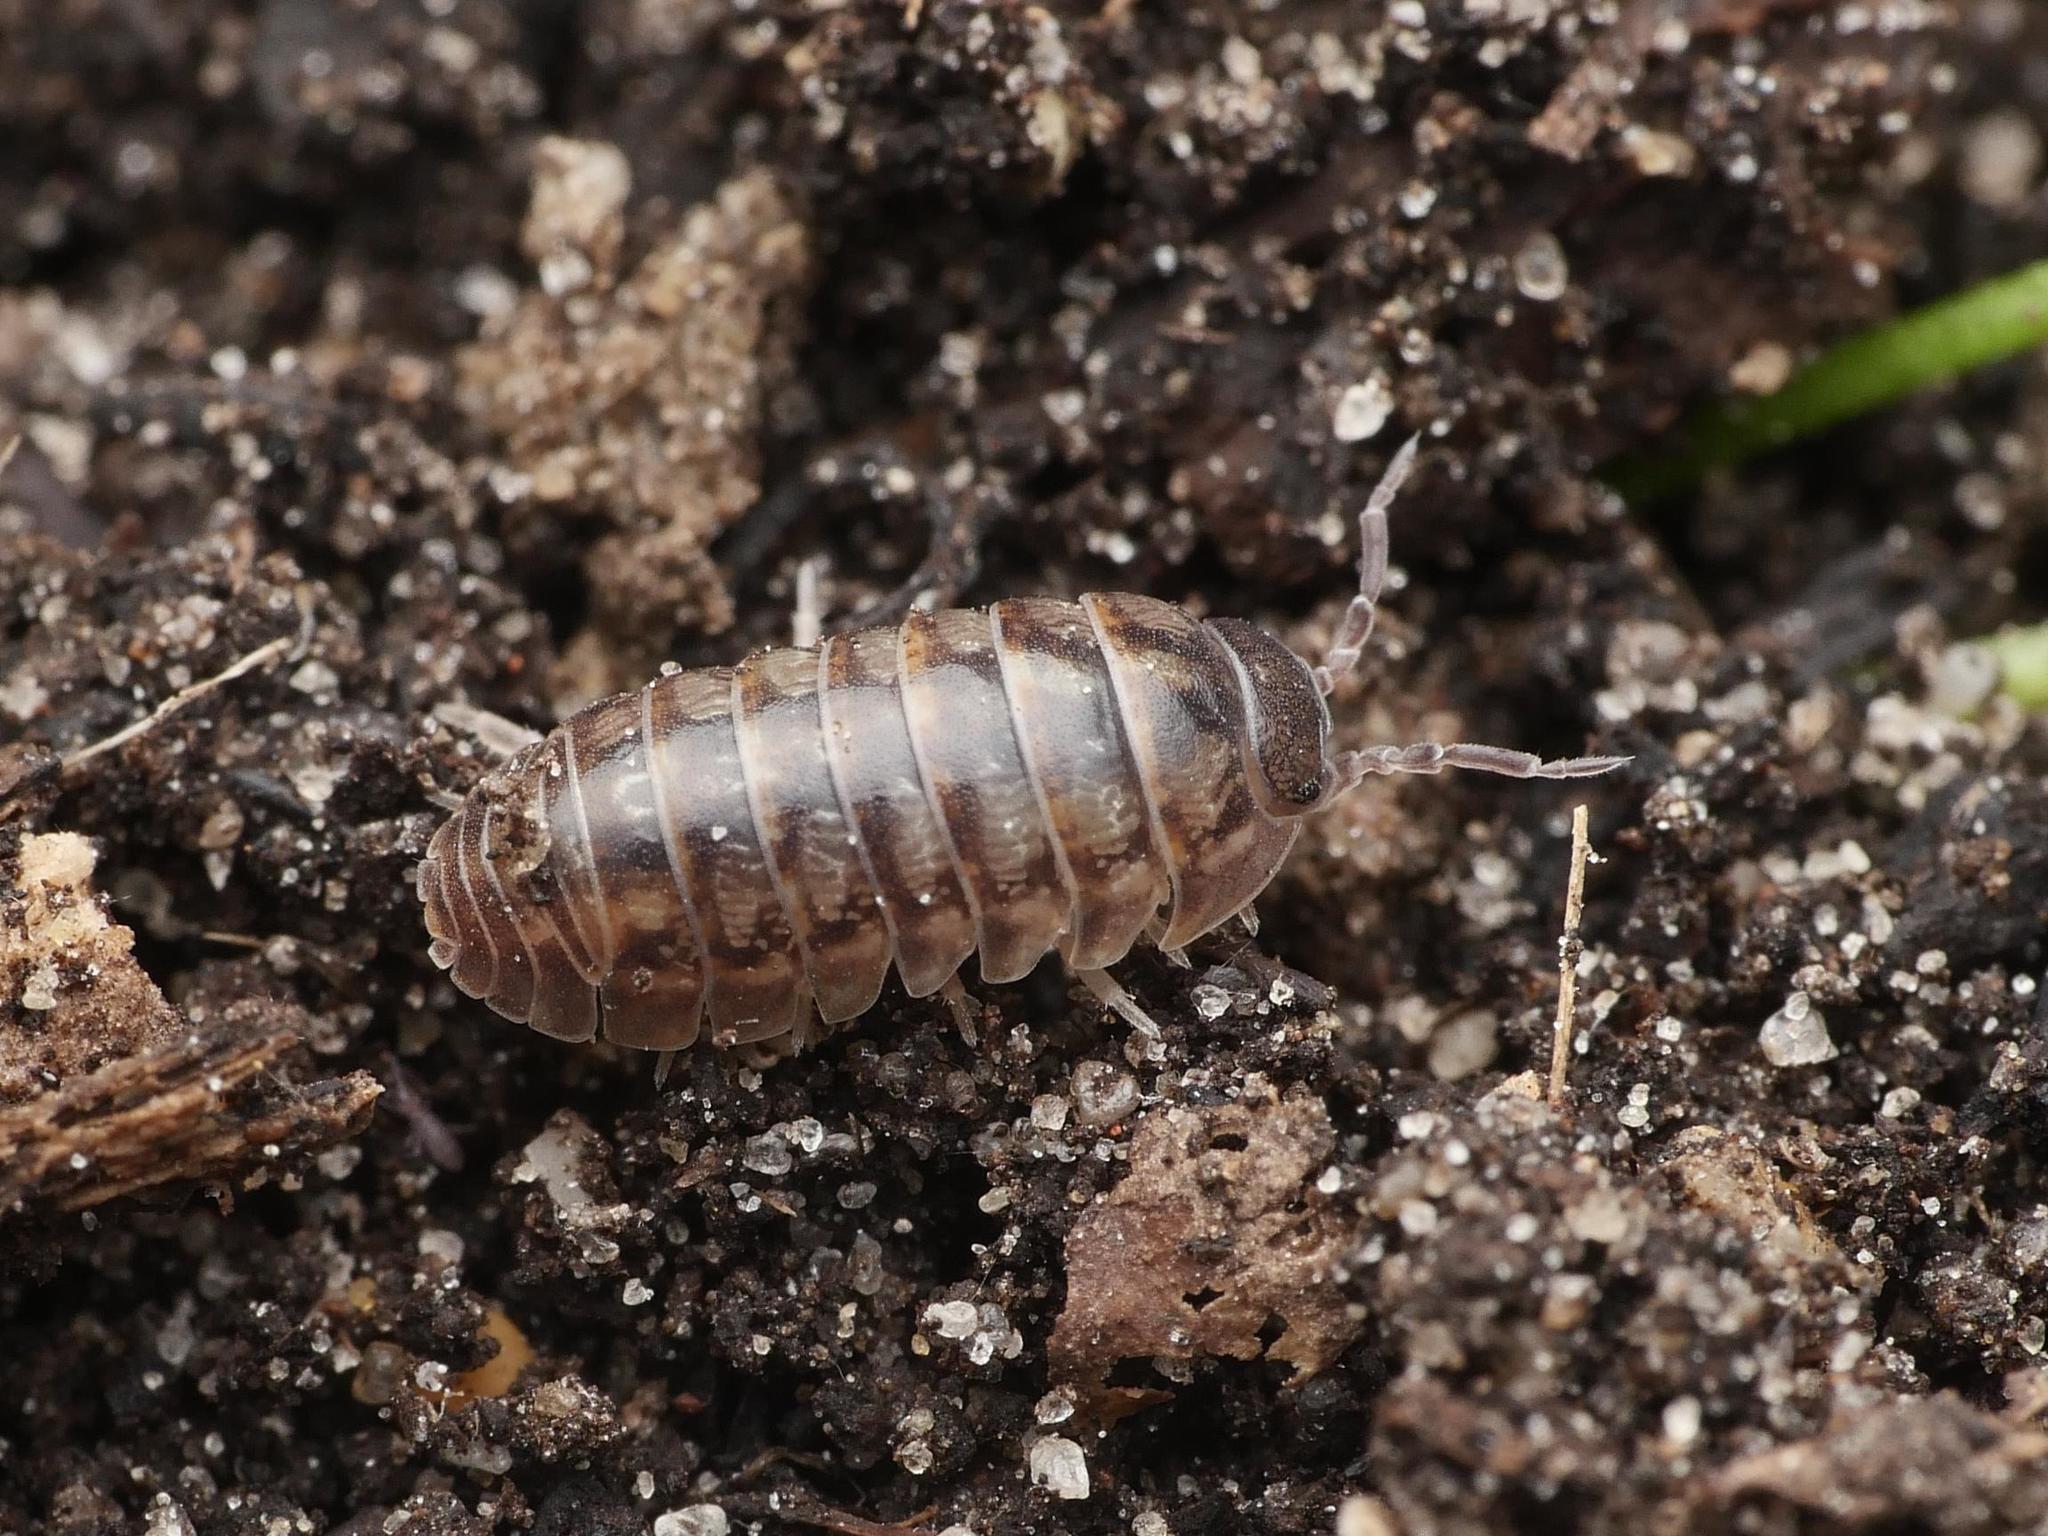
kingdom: Animalia
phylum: Arthropoda
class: Malacostraca
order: Isopoda
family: Armadillidiidae
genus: Armadillidium
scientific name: Armadillidium vulgare
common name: Common pill woodlouse
